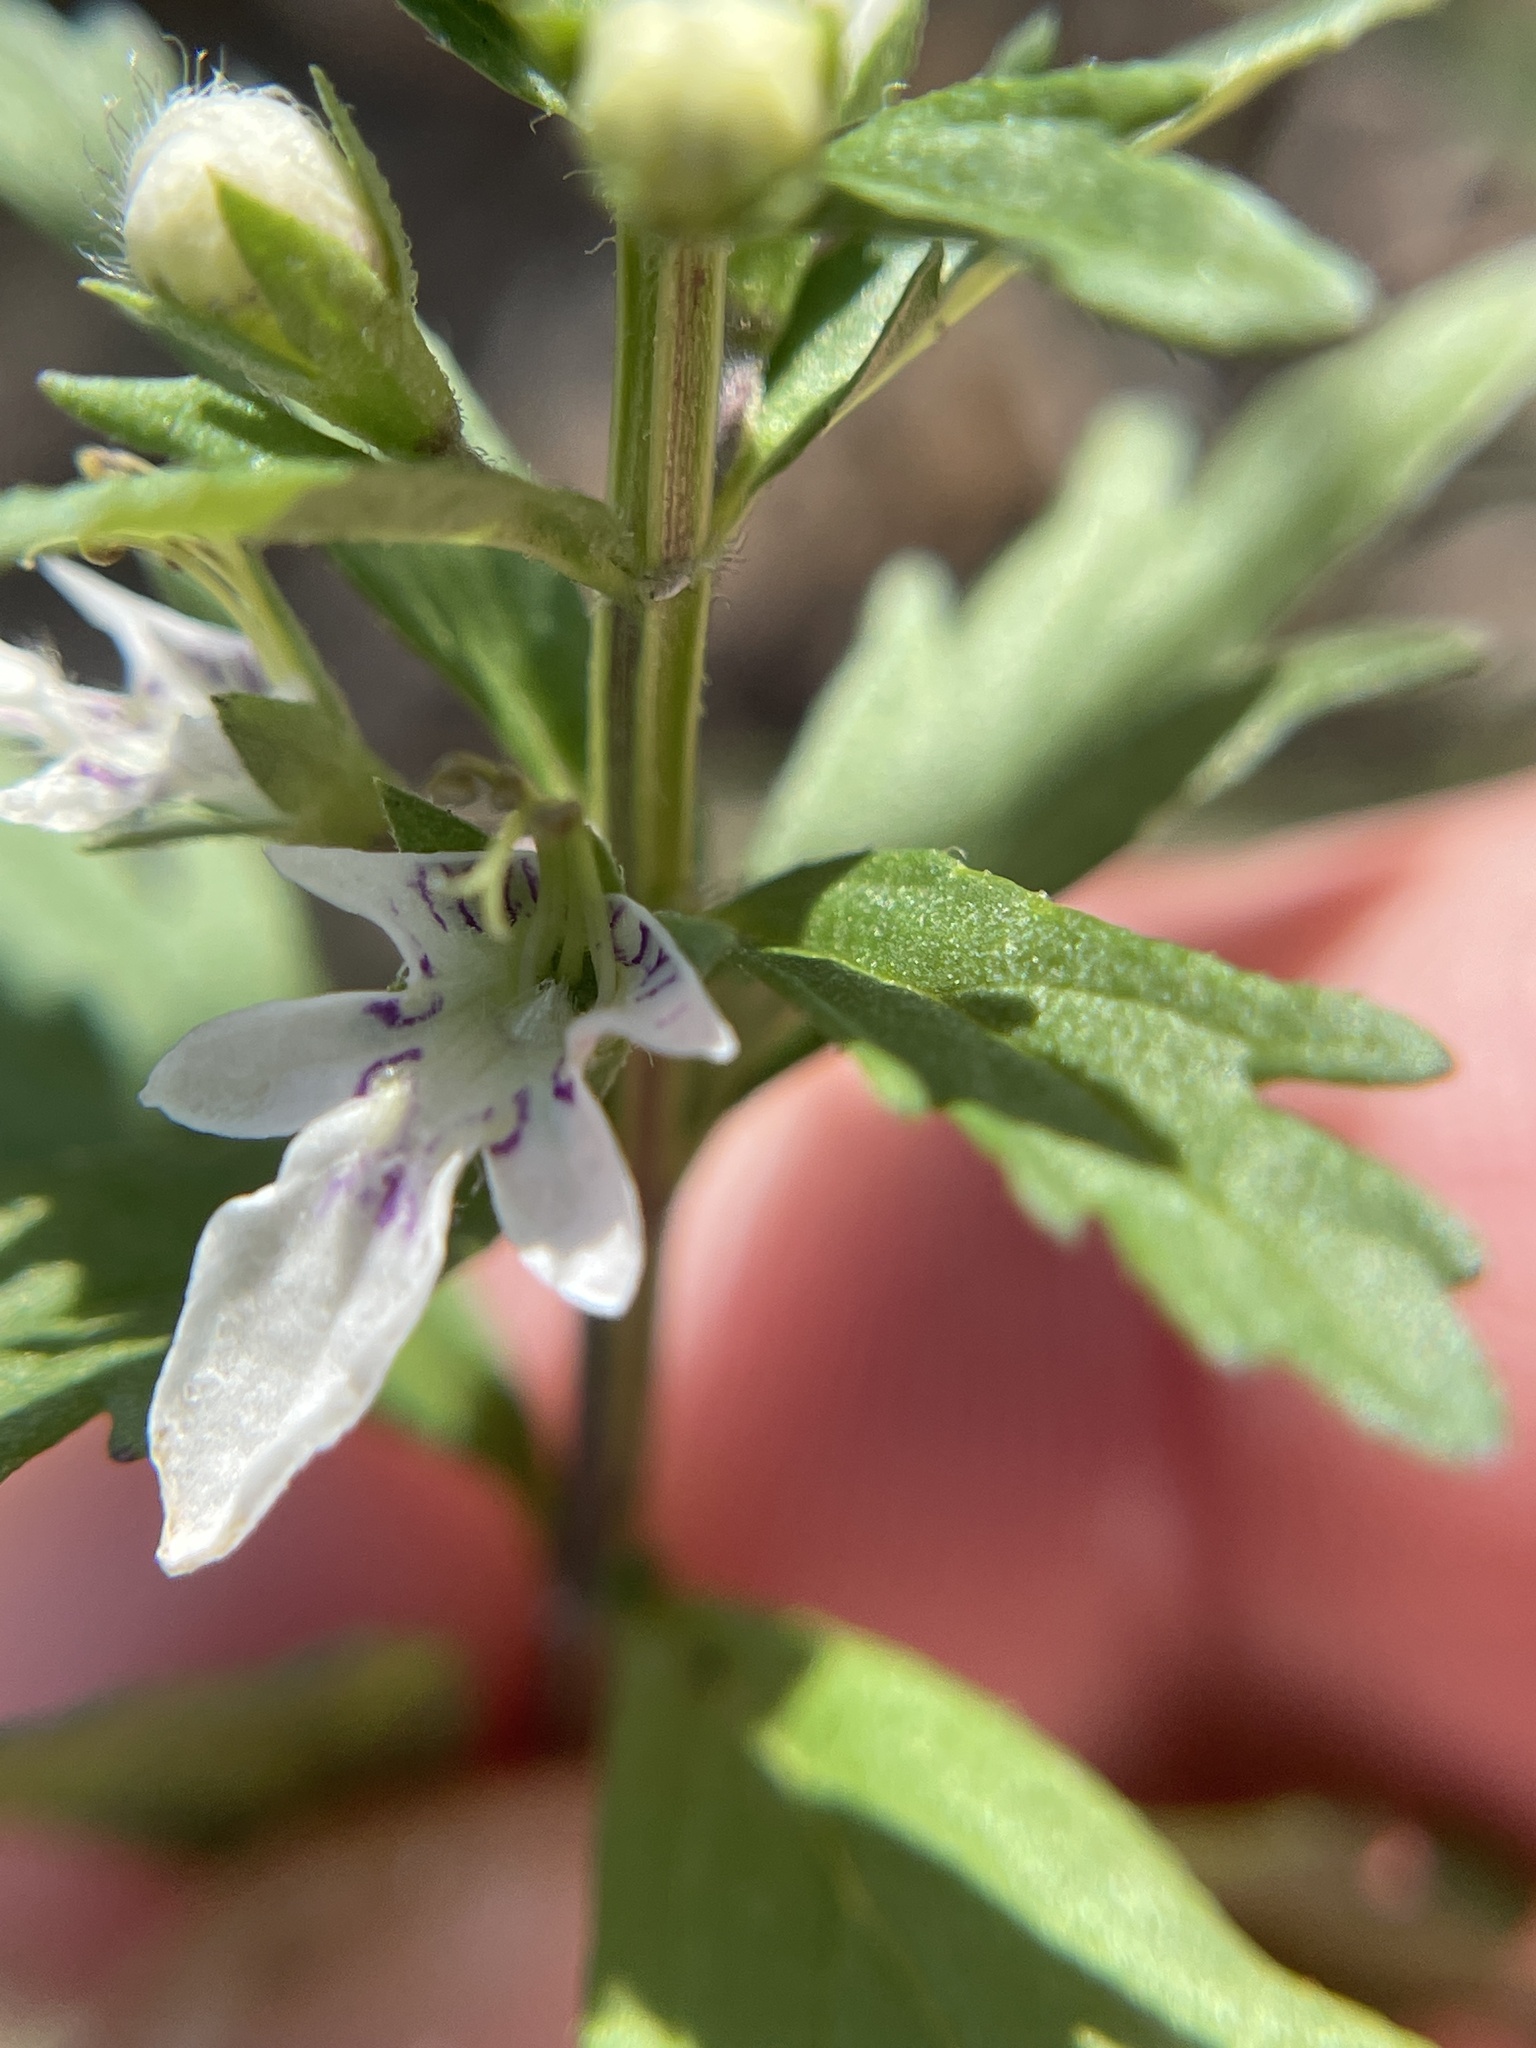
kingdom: Plantae
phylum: Tracheophyta
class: Magnoliopsida
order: Lamiales
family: Lamiaceae
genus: Teucrium
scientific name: Teucrium cubense
